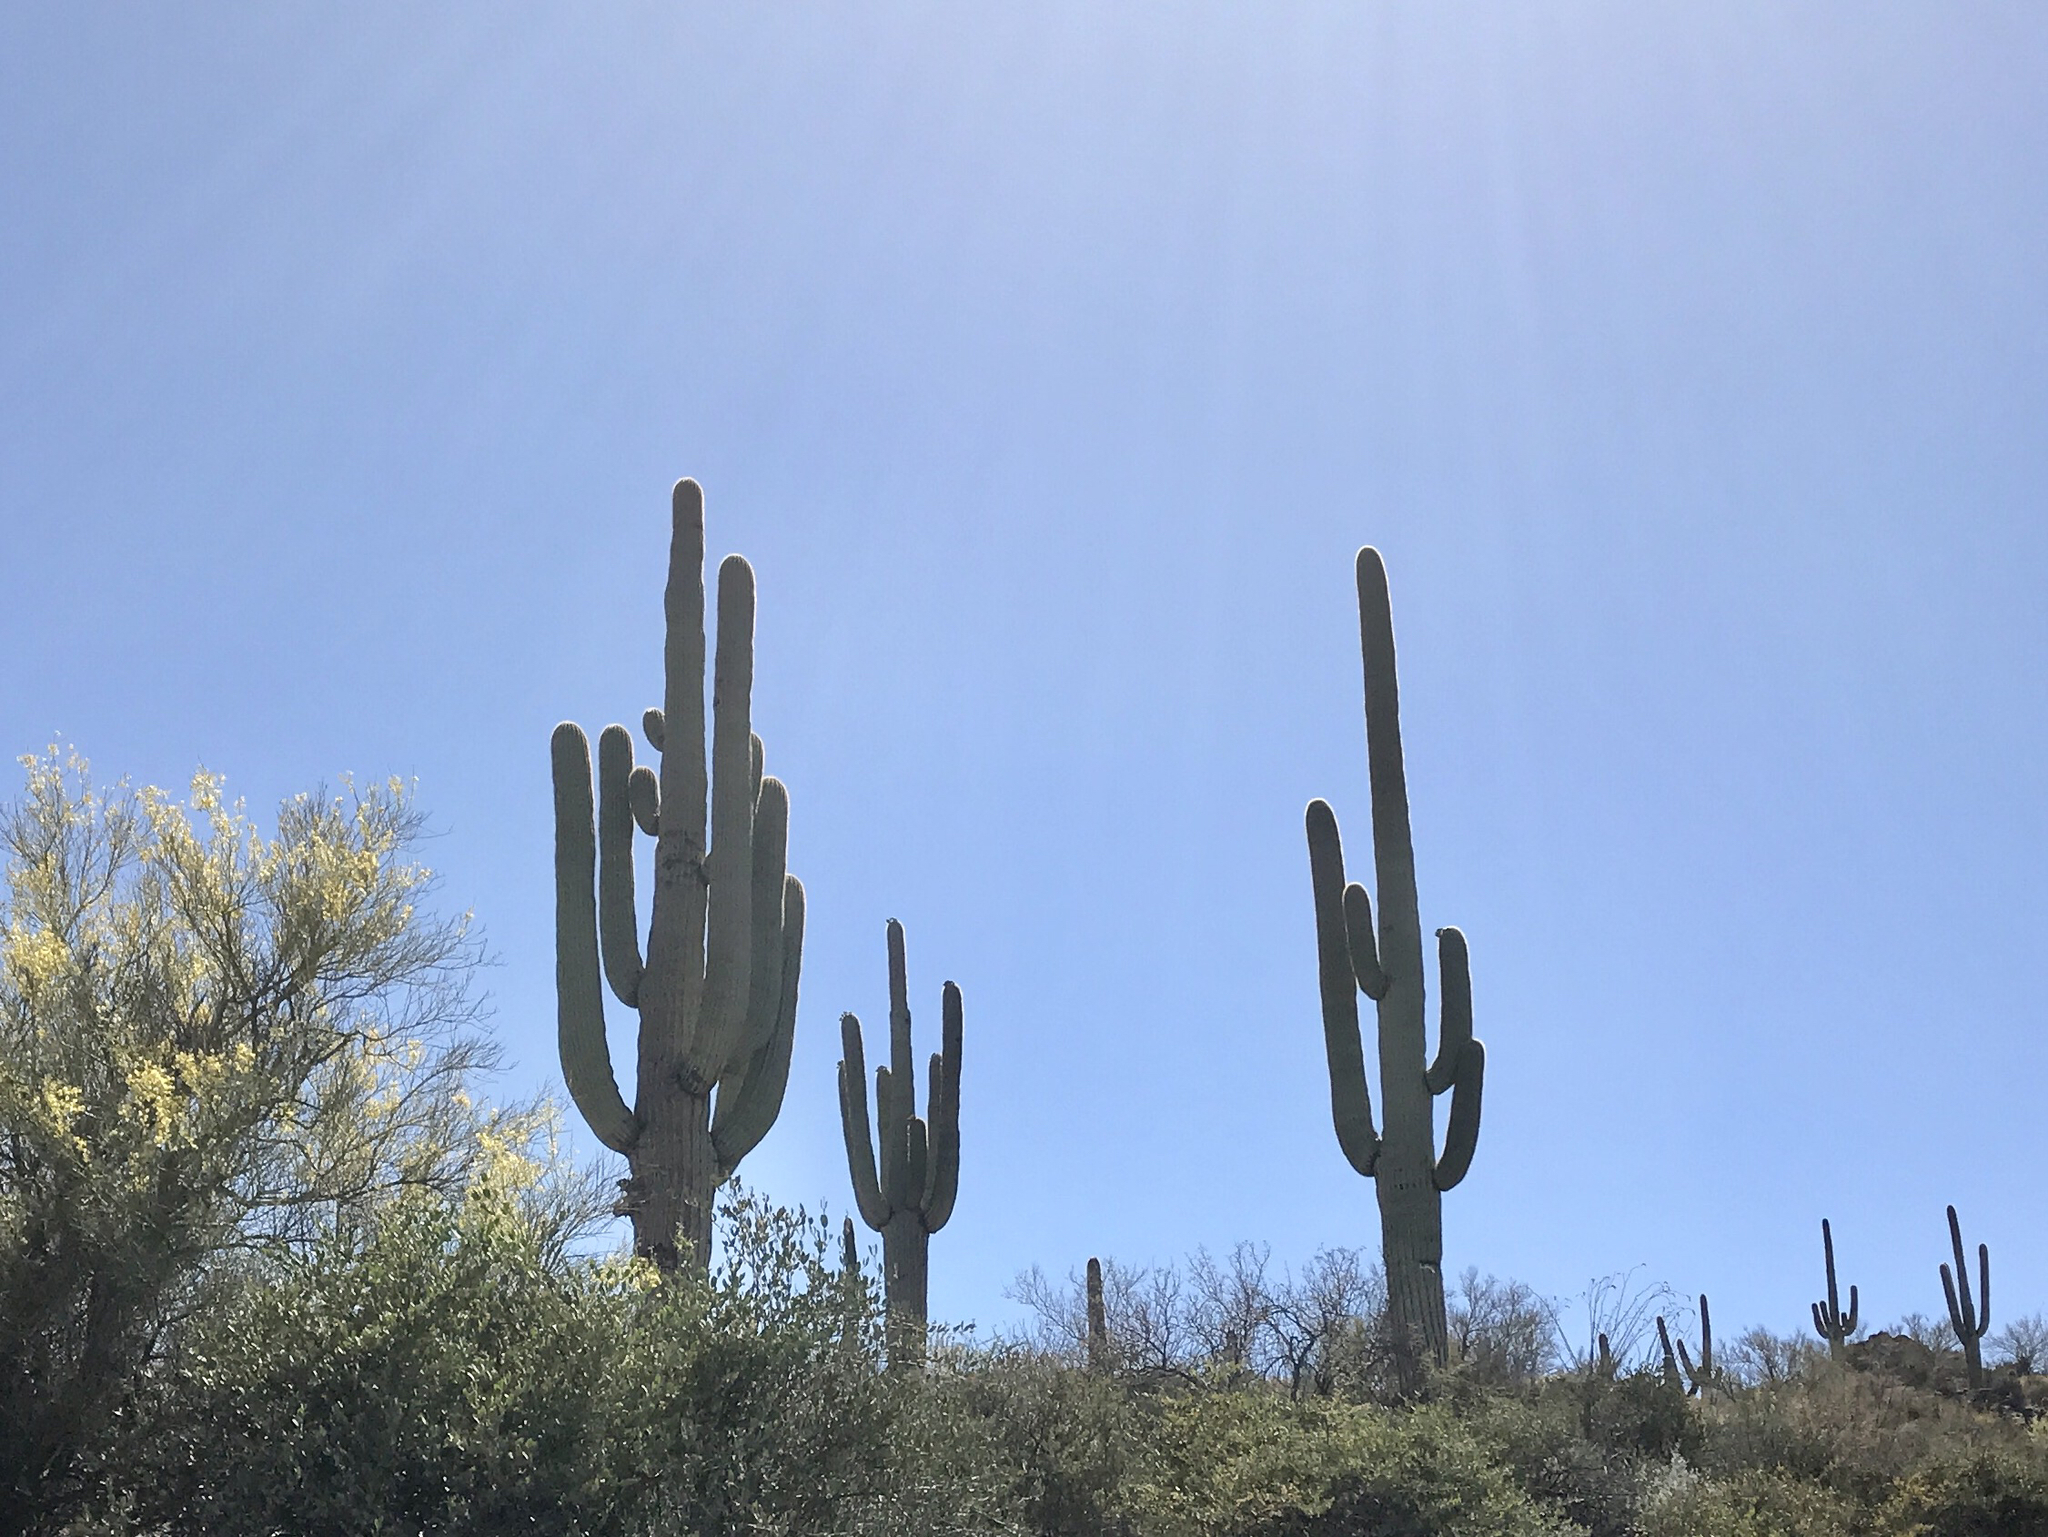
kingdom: Plantae
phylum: Tracheophyta
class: Magnoliopsida
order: Caryophyllales
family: Cactaceae
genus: Carnegiea
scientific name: Carnegiea gigantea
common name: Saguaro
